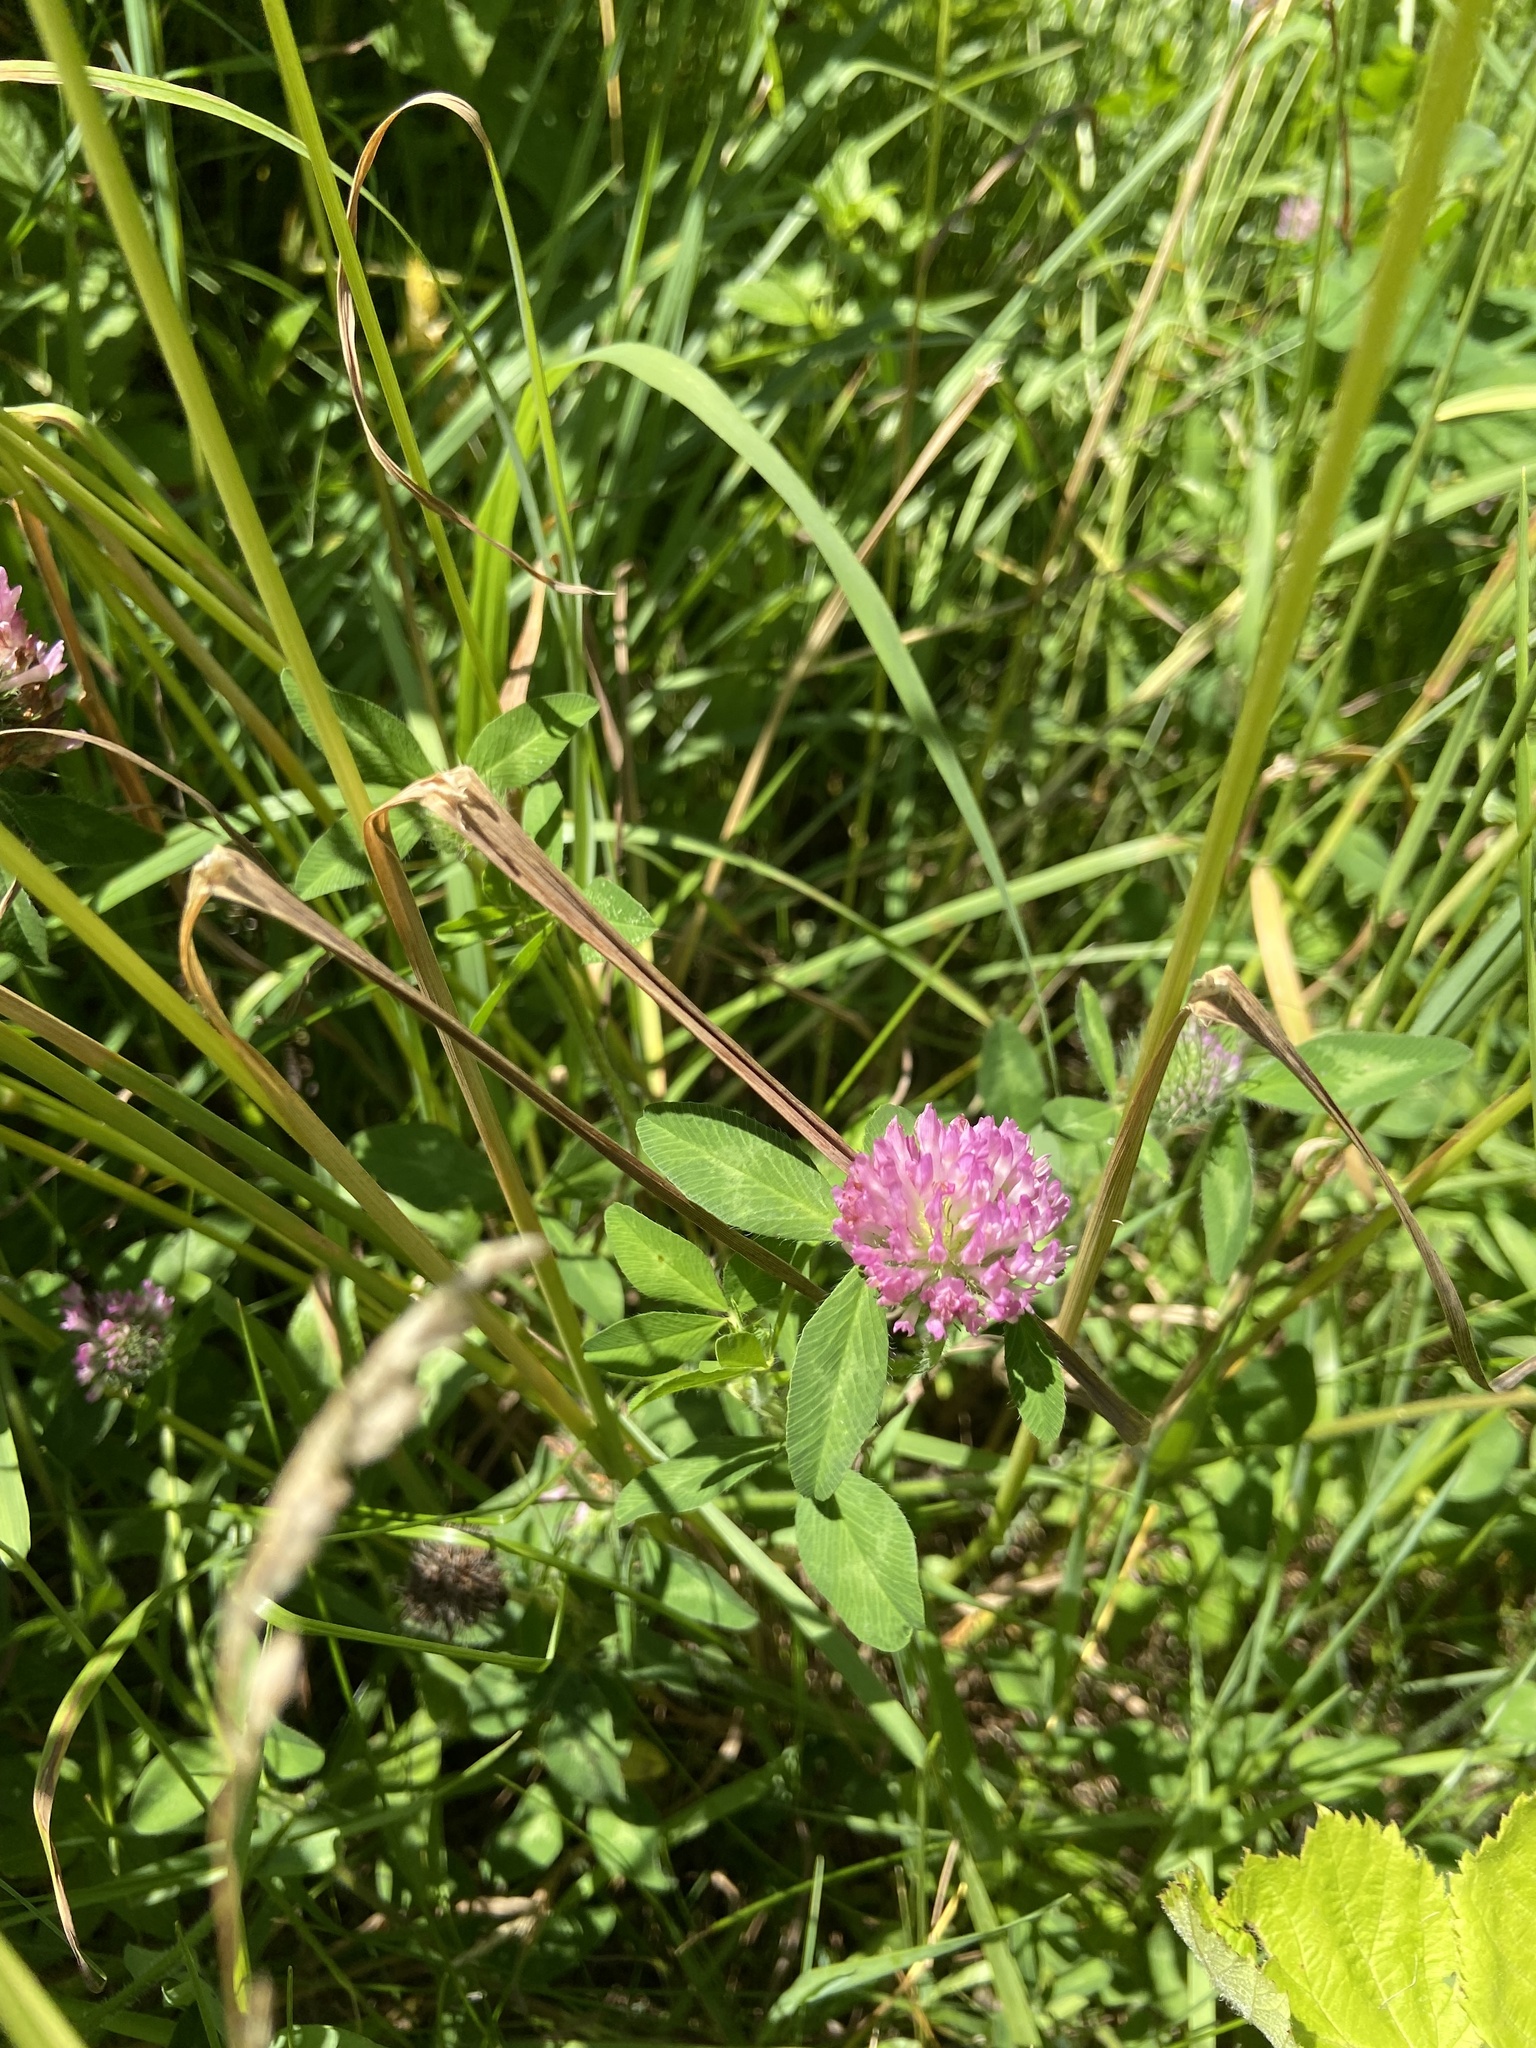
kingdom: Plantae
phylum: Tracheophyta
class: Magnoliopsida
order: Fabales
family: Fabaceae
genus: Trifolium
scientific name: Trifolium pratense
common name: Red clover
